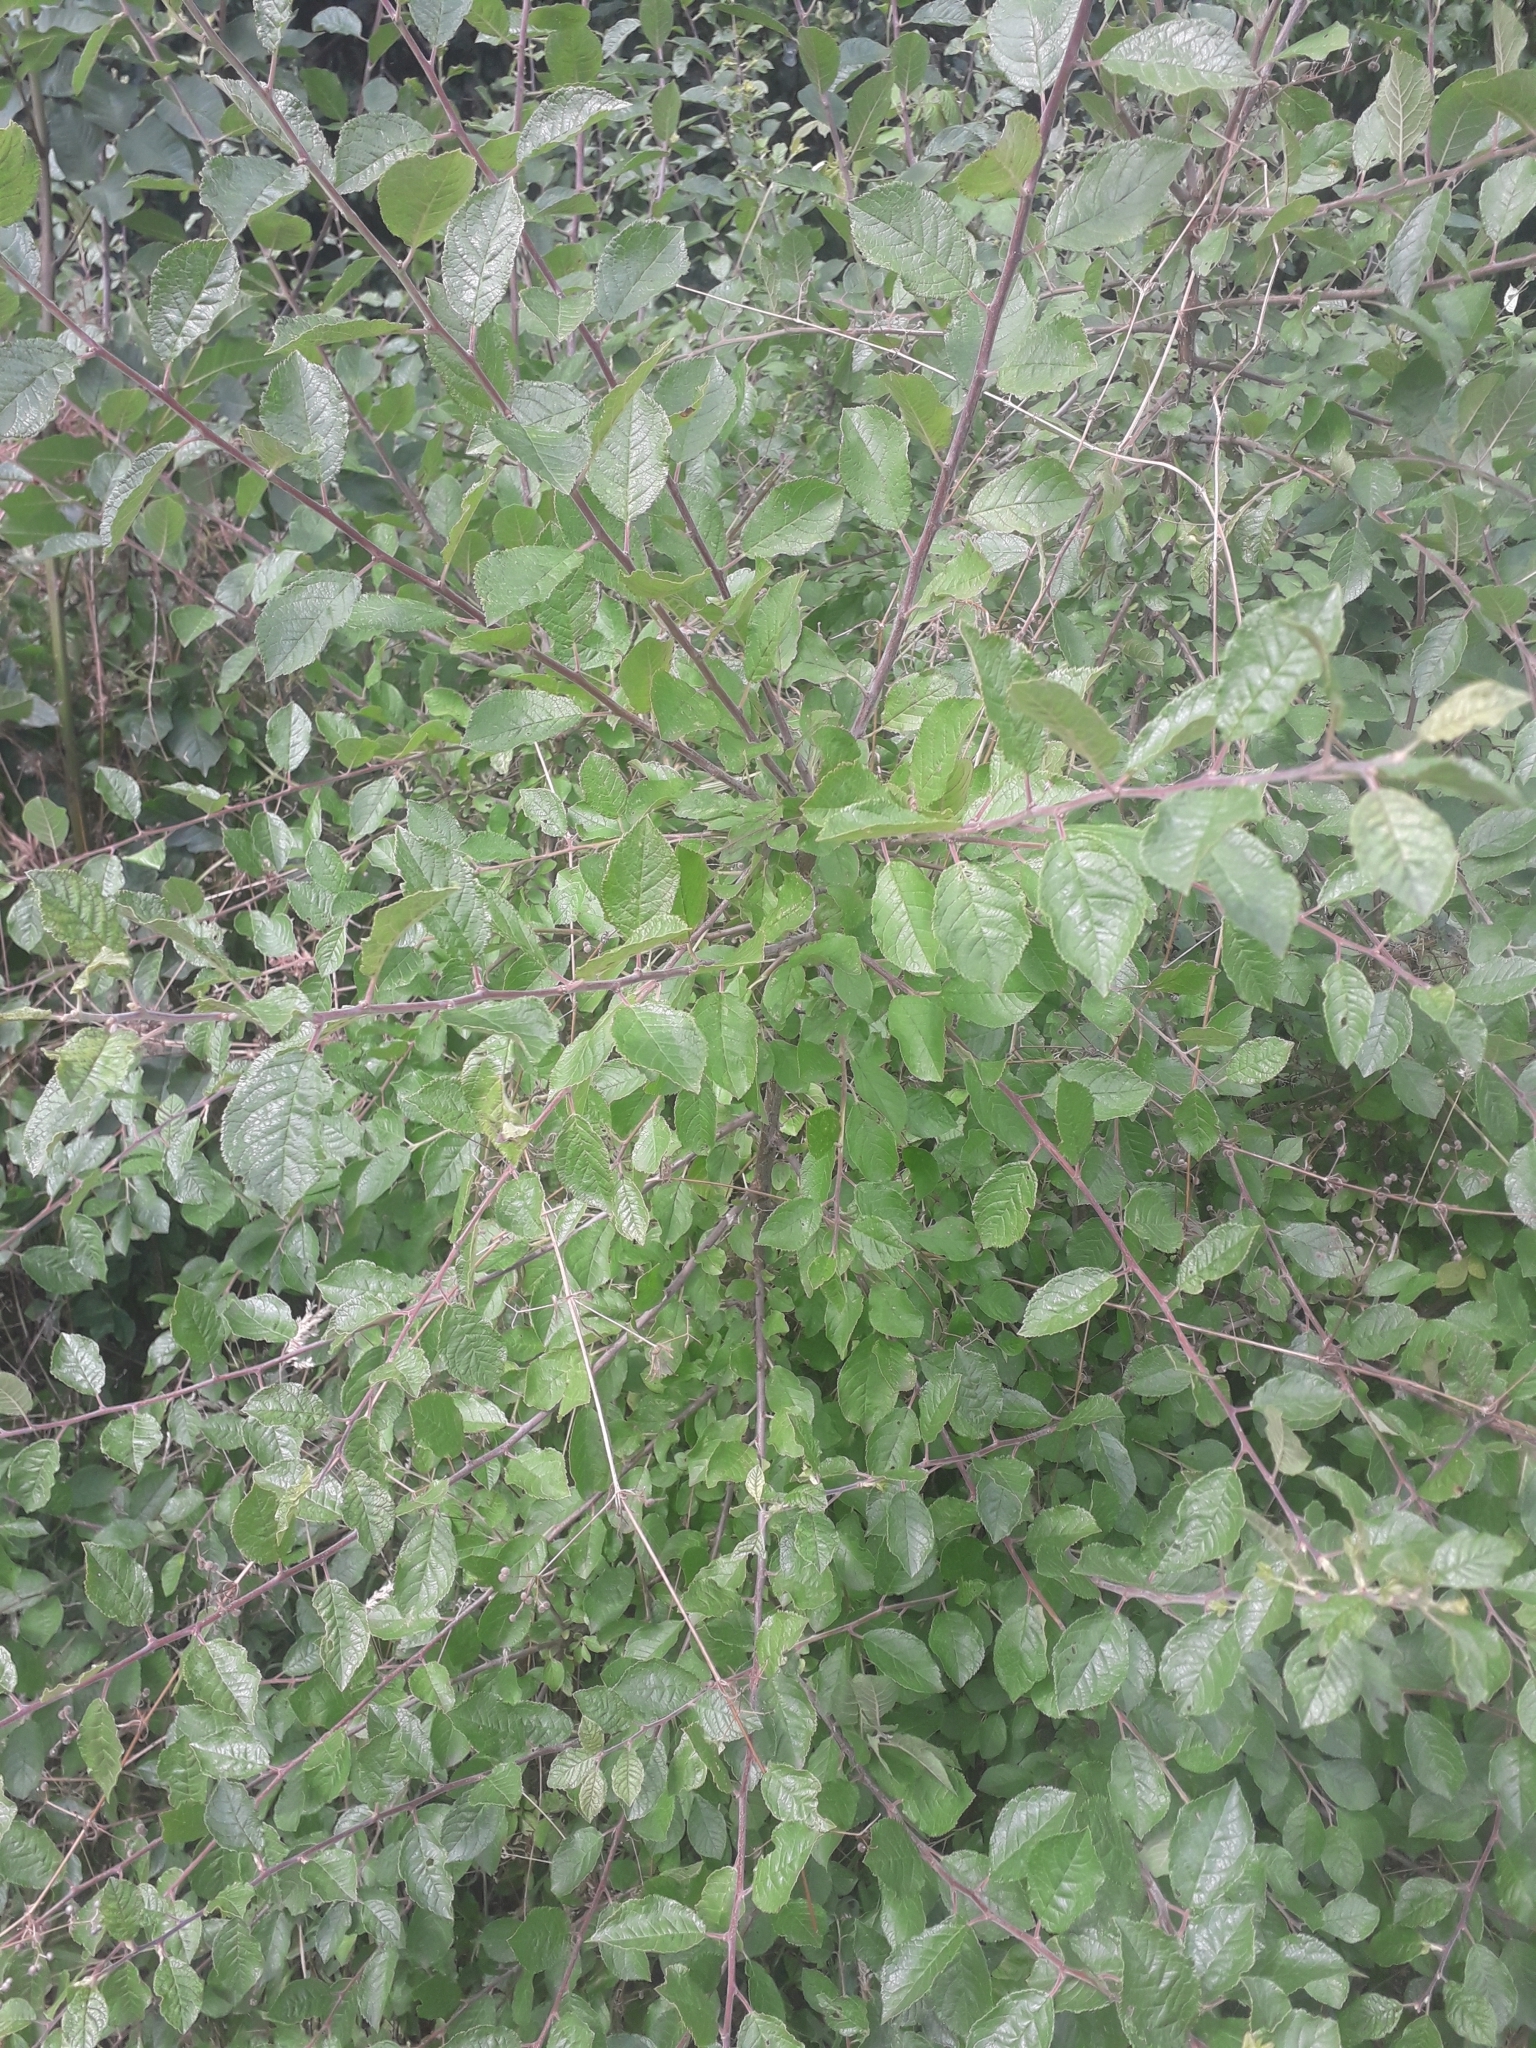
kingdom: Plantae
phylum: Tracheophyta
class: Magnoliopsida
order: Rosales
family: Rosaceae
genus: Prunus
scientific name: Prunus spinosa
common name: Blackthorn
